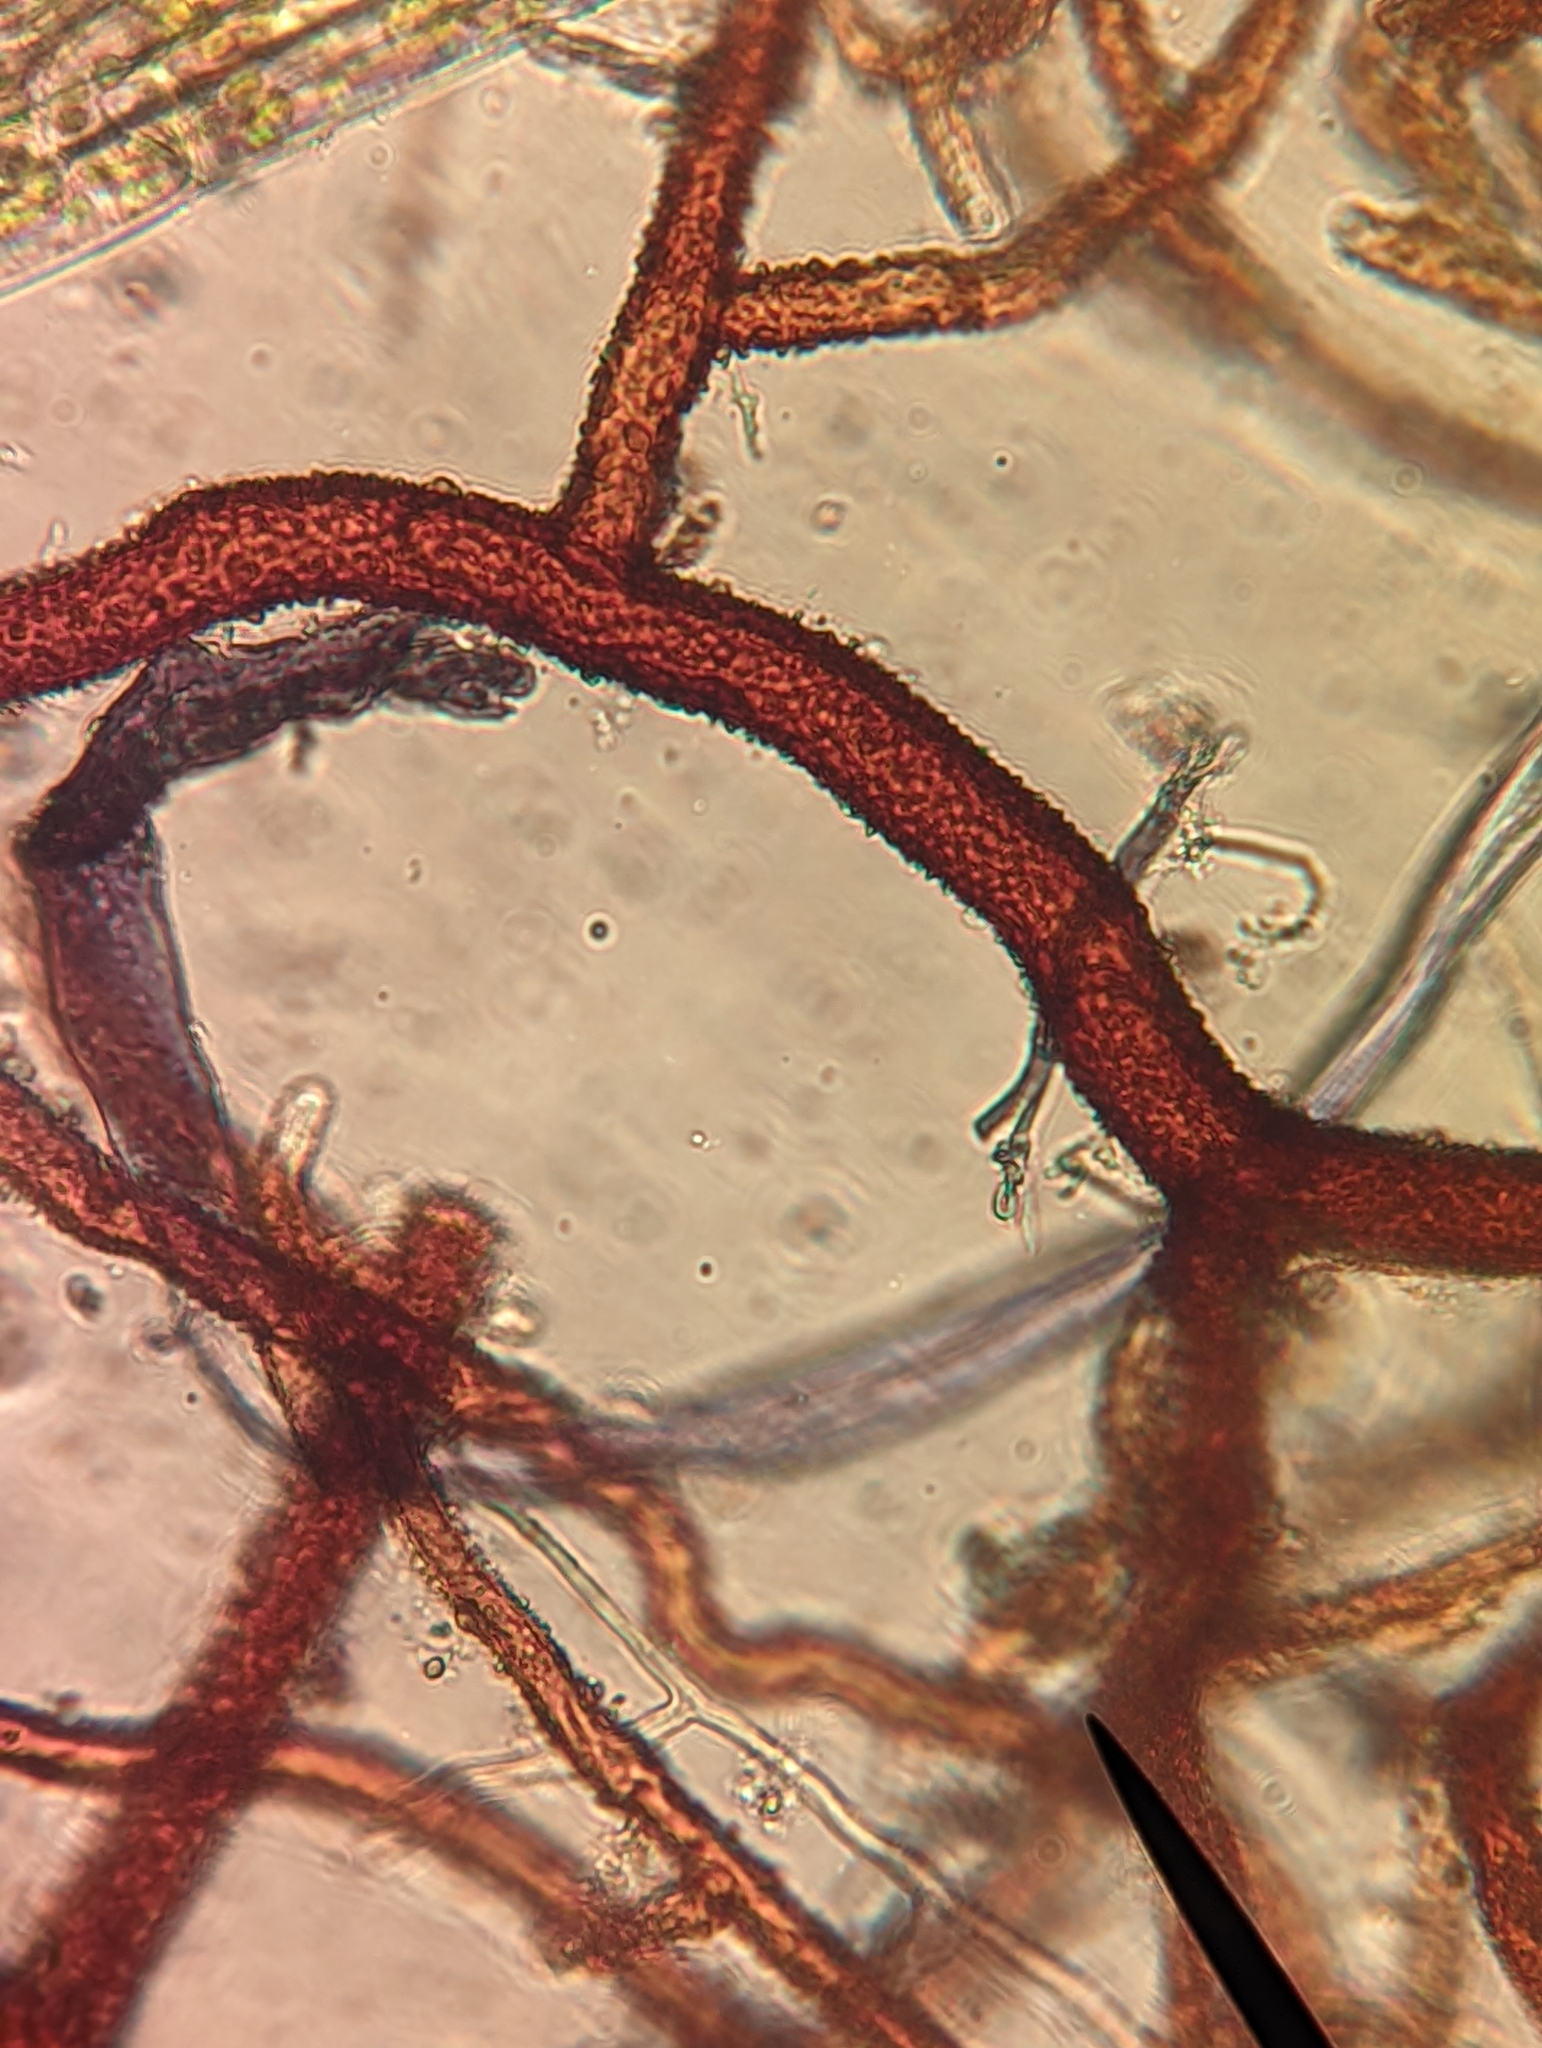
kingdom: Plantae
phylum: Bryophyta
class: Bryopsida
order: Bryales
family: Bryaceae
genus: Rosulabryum
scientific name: Rosulabryum canariense
